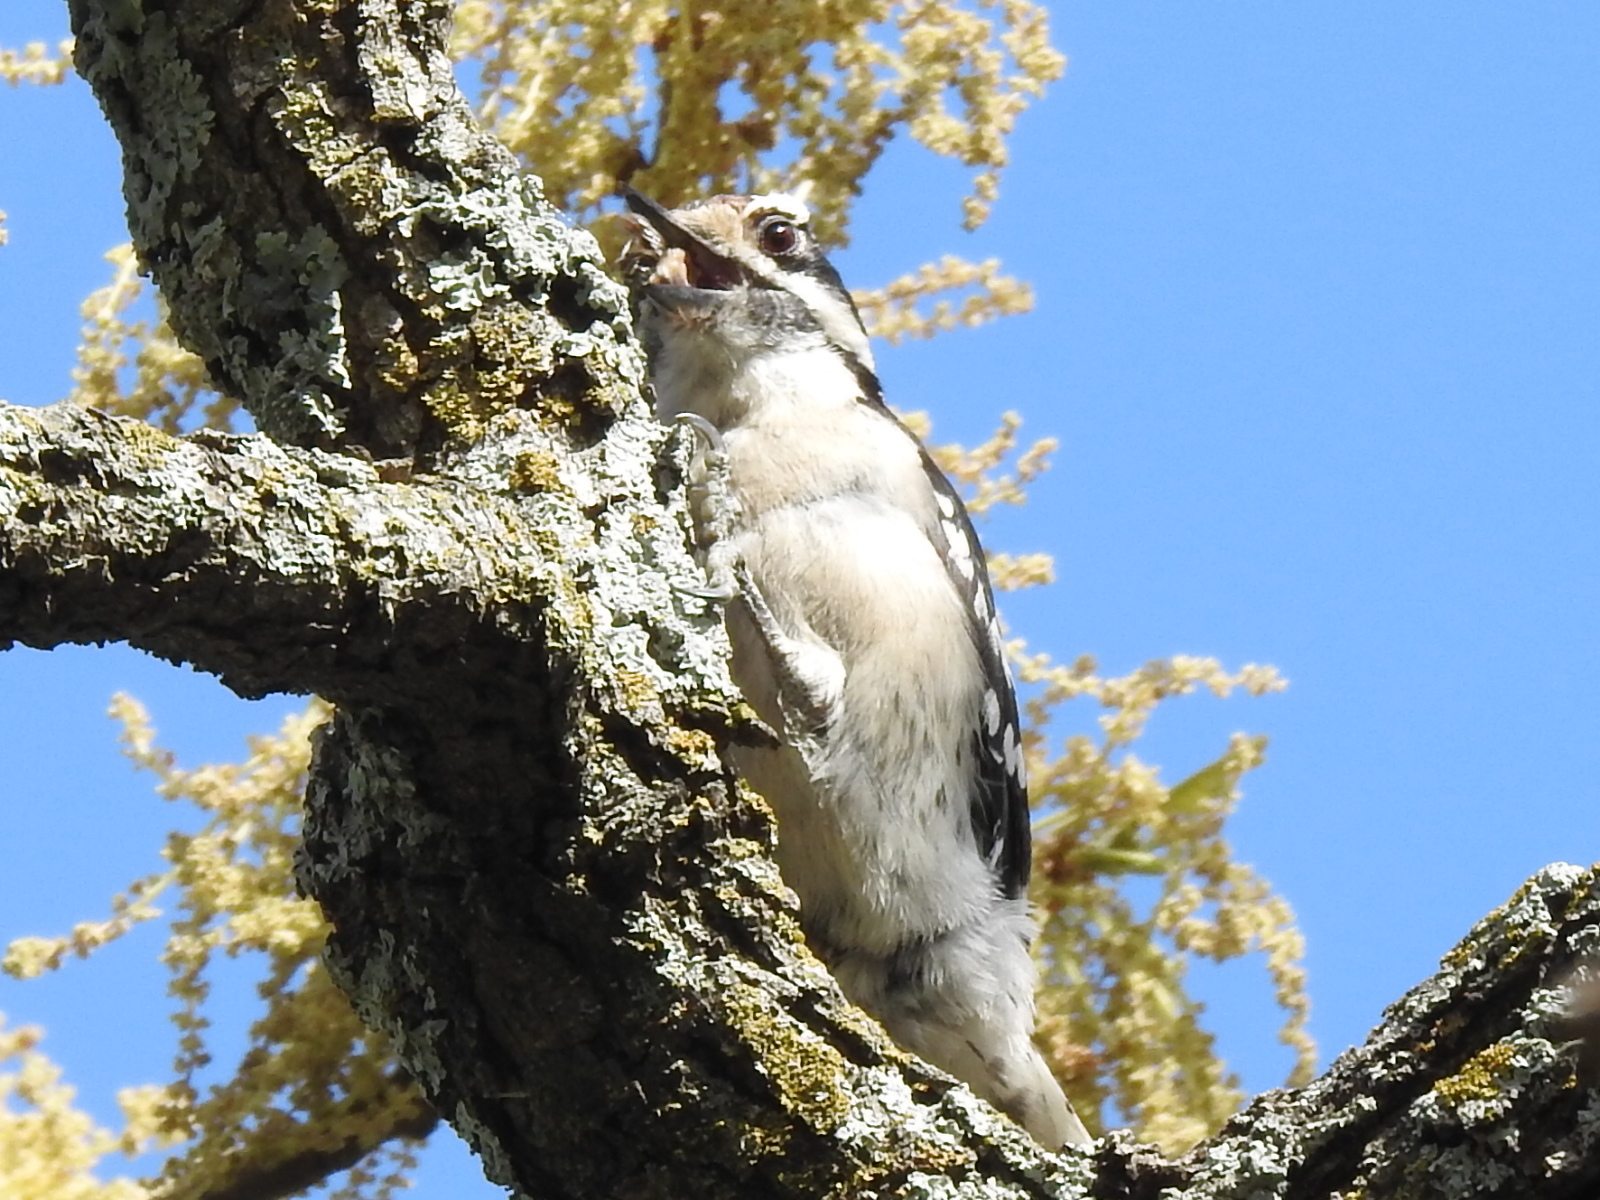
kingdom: Animalia
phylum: Chordata
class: Aves
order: Piciformes
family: Picidae
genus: Dryobates
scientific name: Dryobates pubescens
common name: Downy woodpecker
